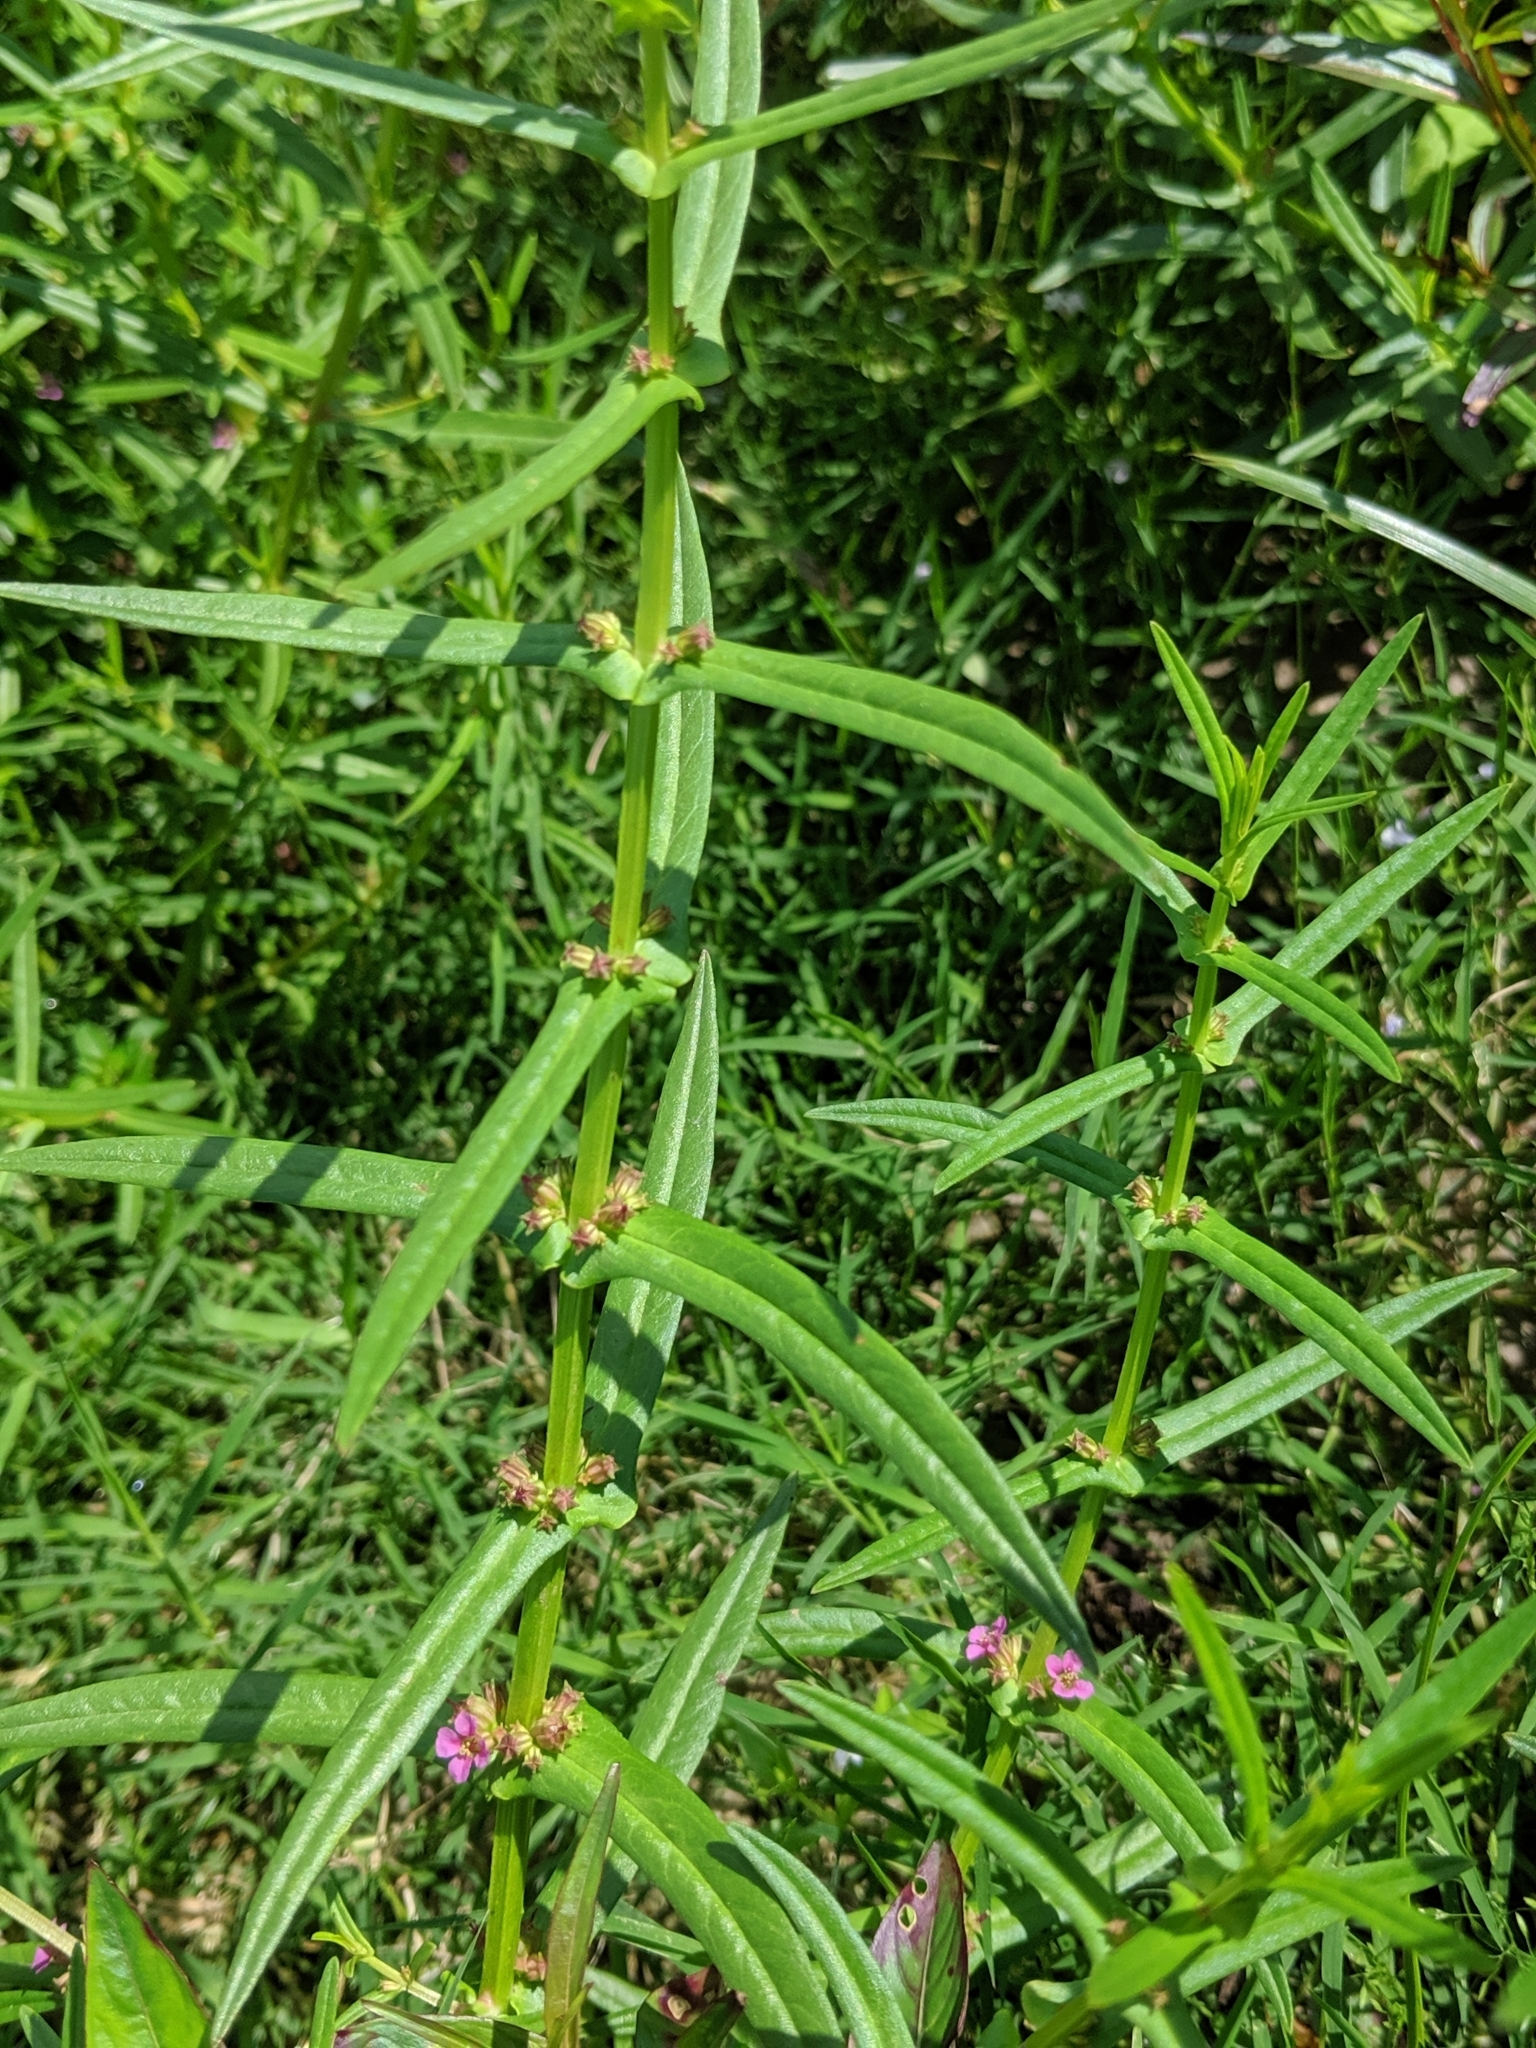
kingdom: Plantae
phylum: Tracheophyta
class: Magnoliopsida
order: Myrtales
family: Lythraceae
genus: Ammannia
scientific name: Ammannia coccinea
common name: Valley redstem
